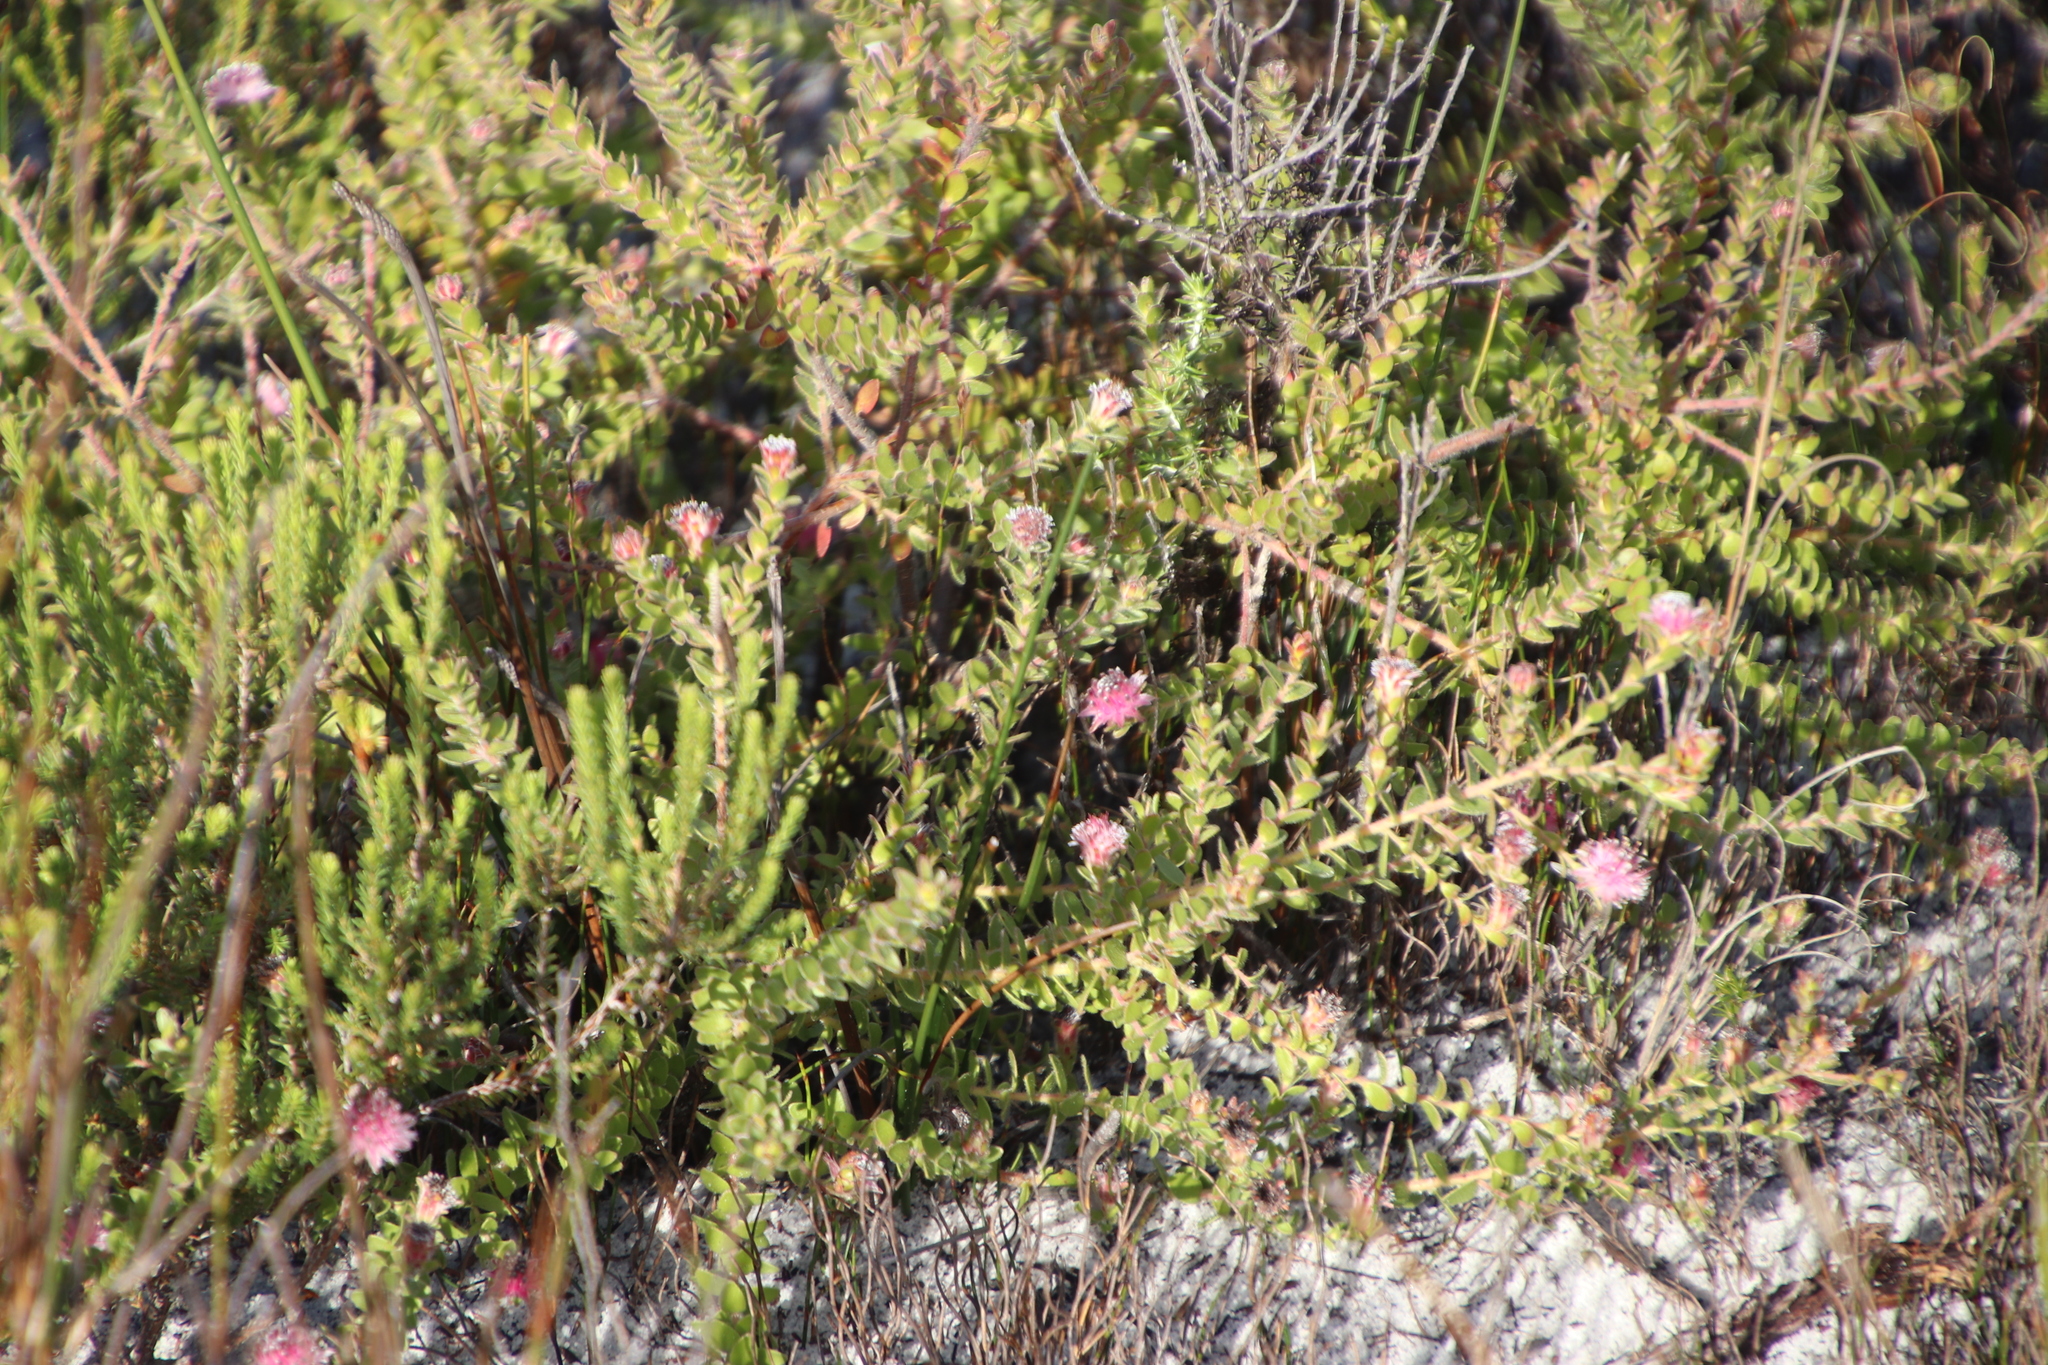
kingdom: Plantae
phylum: Tracheophyta
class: Magnoliopsida
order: Proteales
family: Proteaceae
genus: Diastella
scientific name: Diastella divaricata
